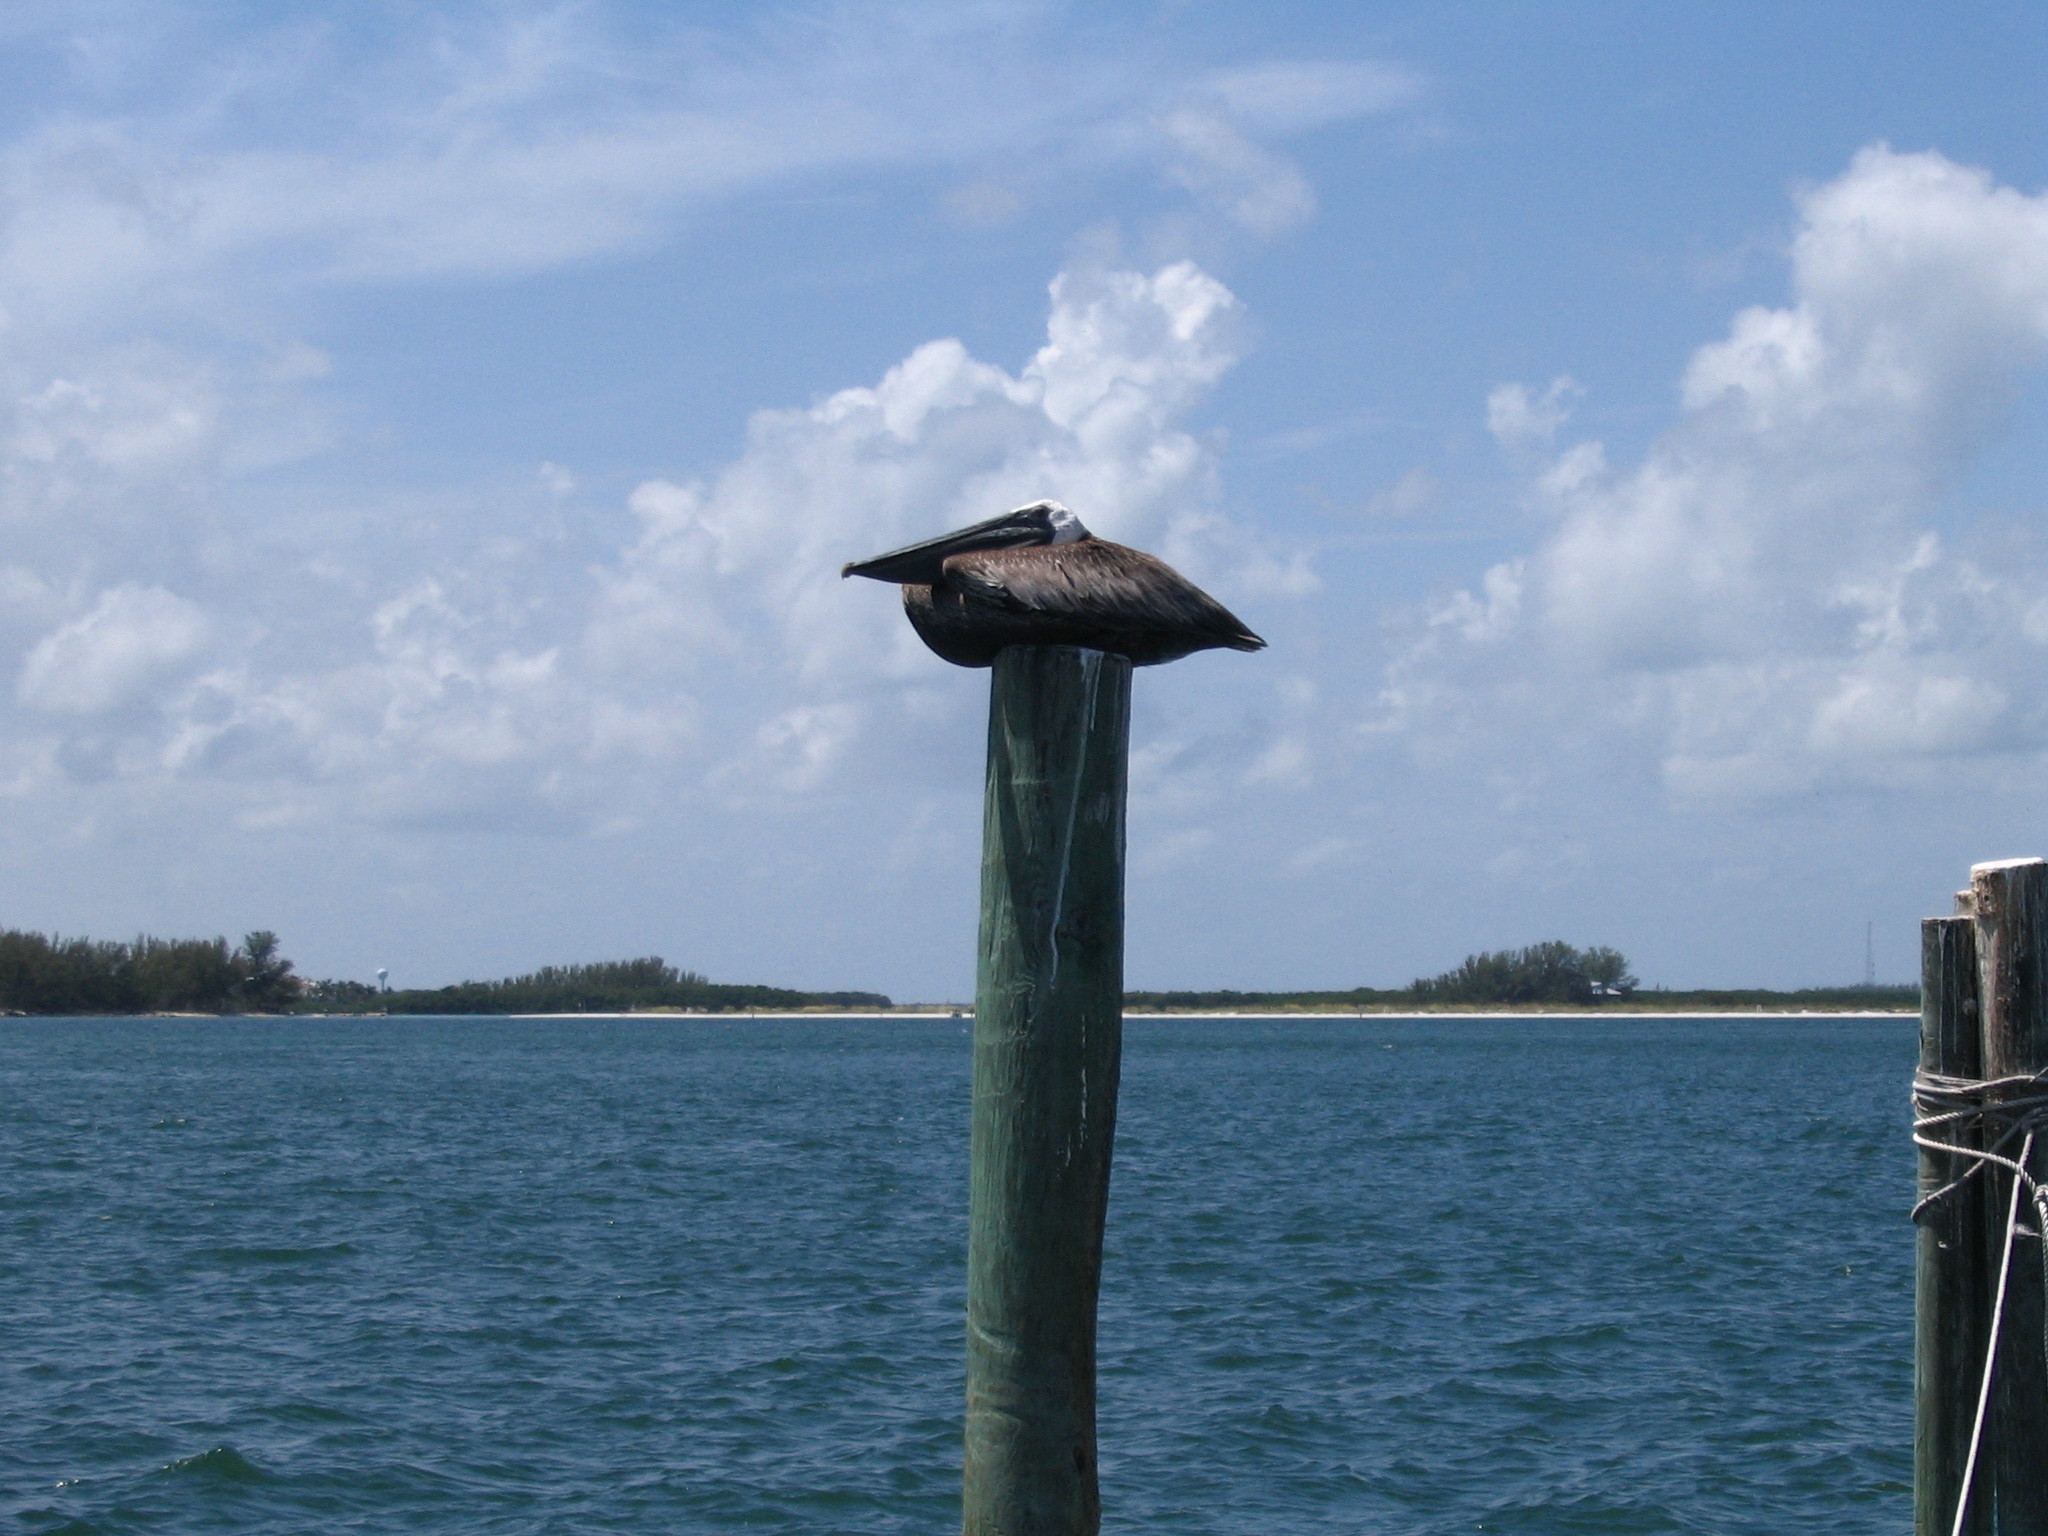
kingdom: Animalia
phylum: Chordata
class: Aves
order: Pelecaniformes
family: Pelecanidae
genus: Pelecanus
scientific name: Pelecanus occidentalis
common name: Brown pelican
